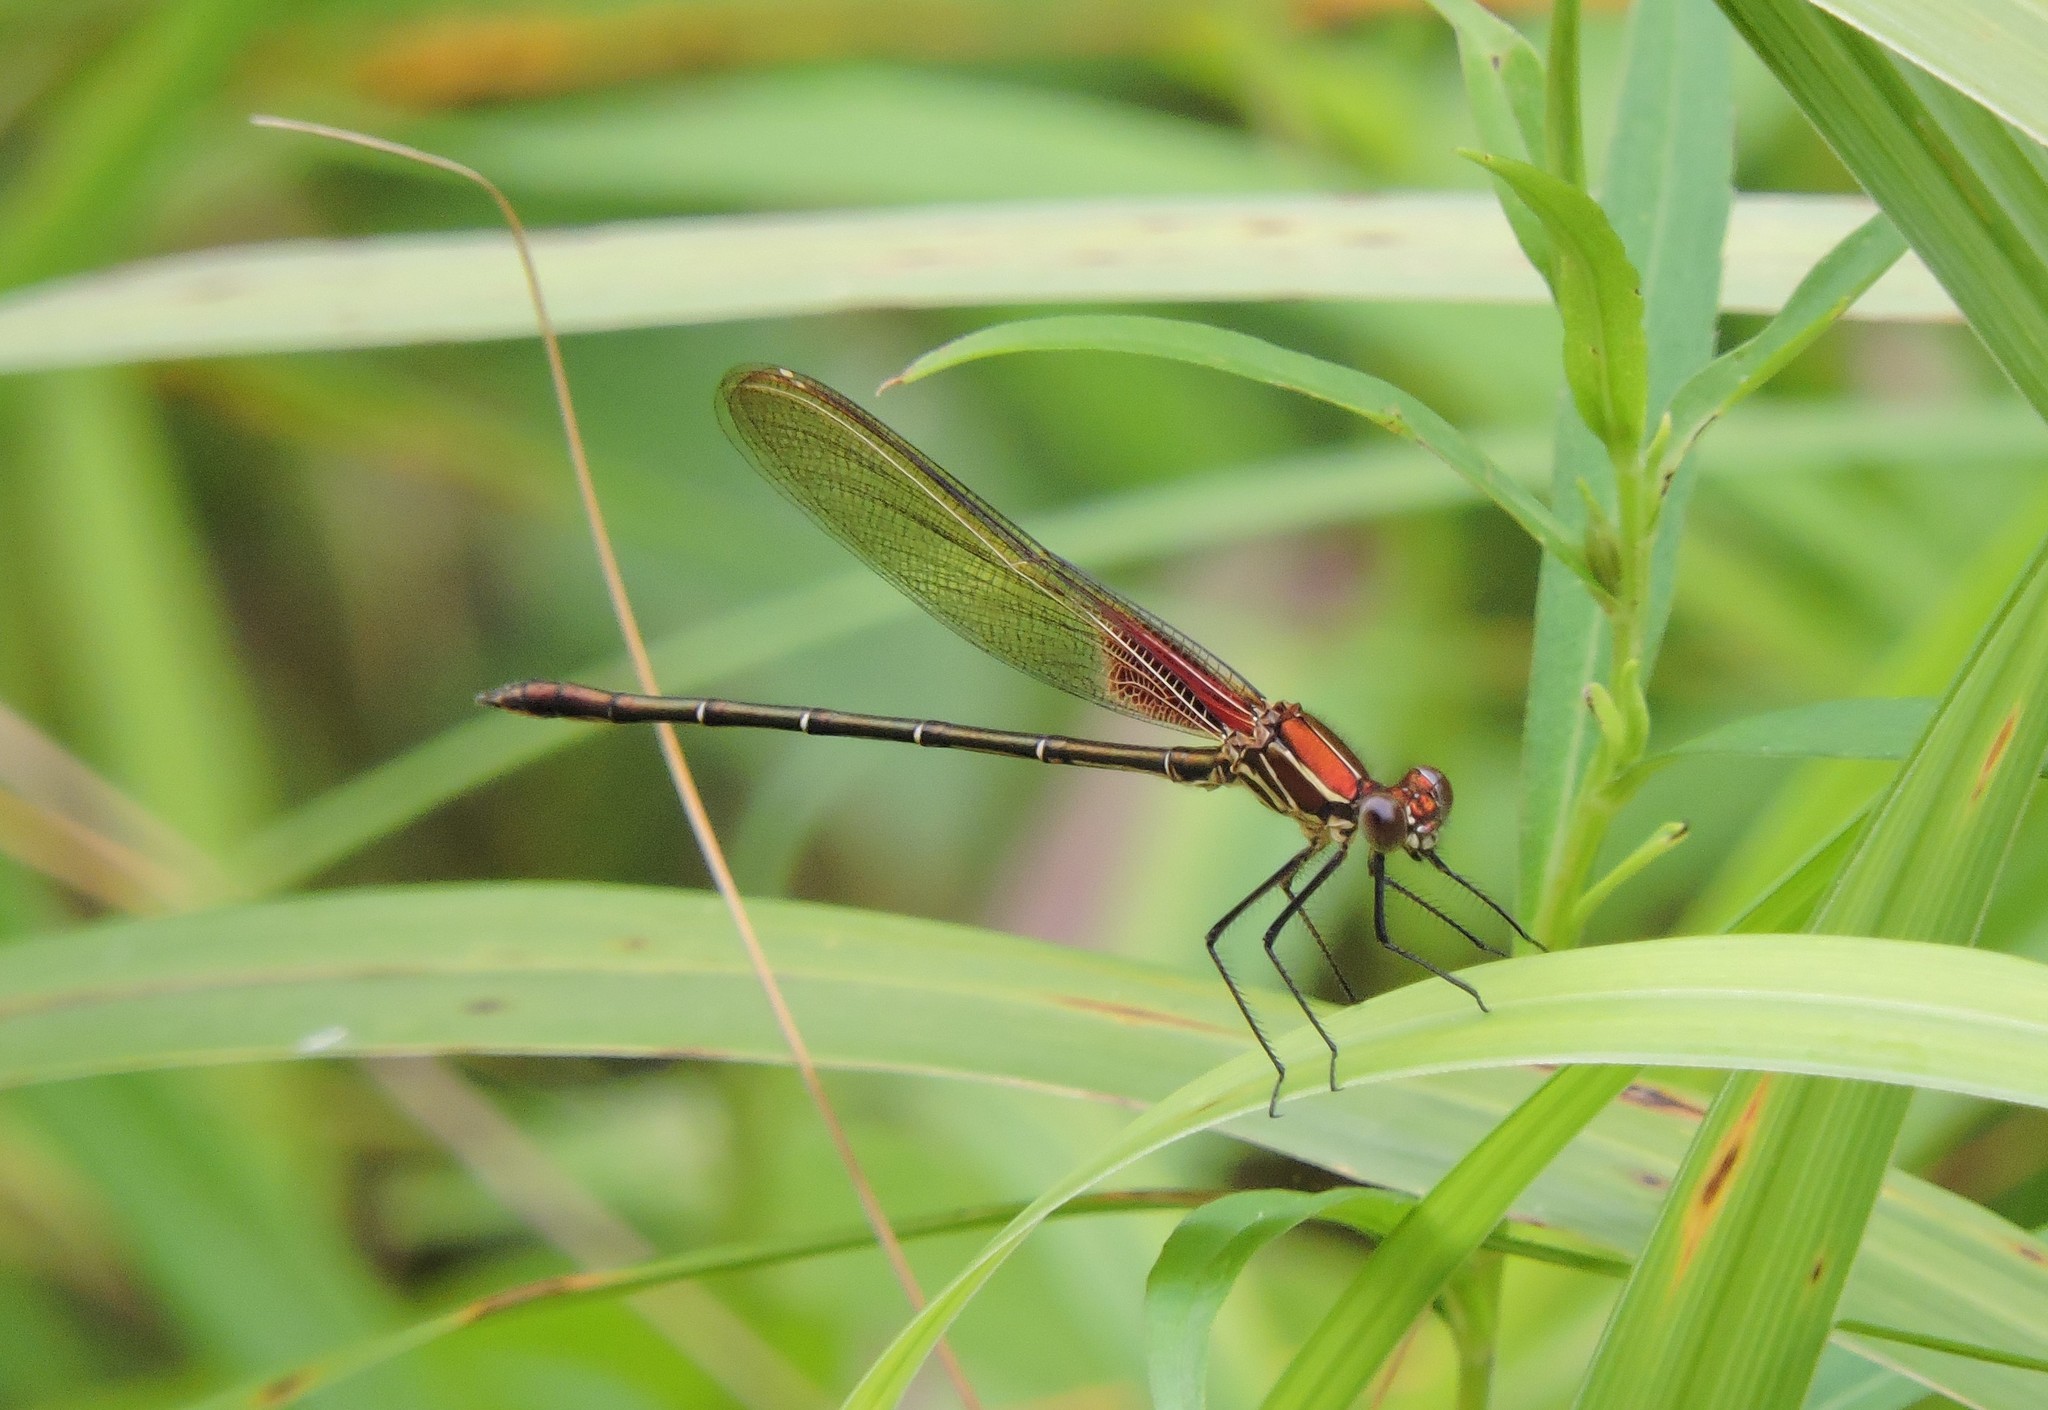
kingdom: Animalia
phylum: Arthropoda
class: Insecta
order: Odonata
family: Calopterygidae
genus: Hetaerina
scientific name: Hetaerina americana
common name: American rubyspot
